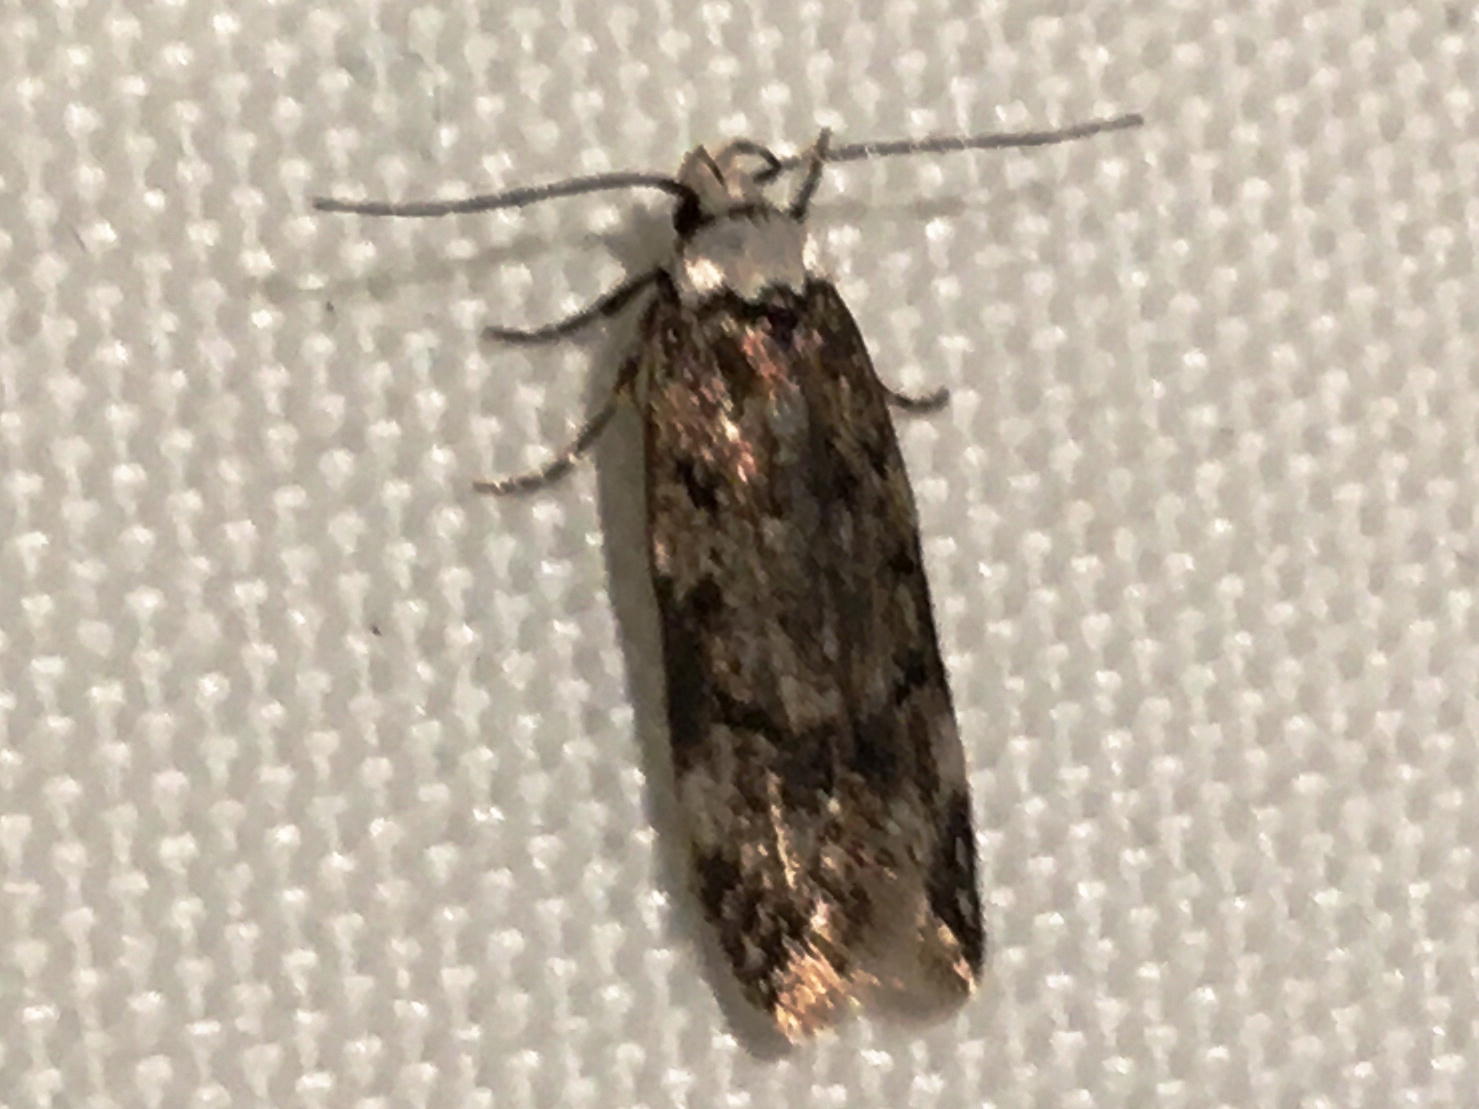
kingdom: Animalia
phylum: Arthropoda
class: Insecta
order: Lepidoptera
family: Oecophoridae
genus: Endrosis
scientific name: Endrosis sarcitrella
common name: White-shouldered house moth
